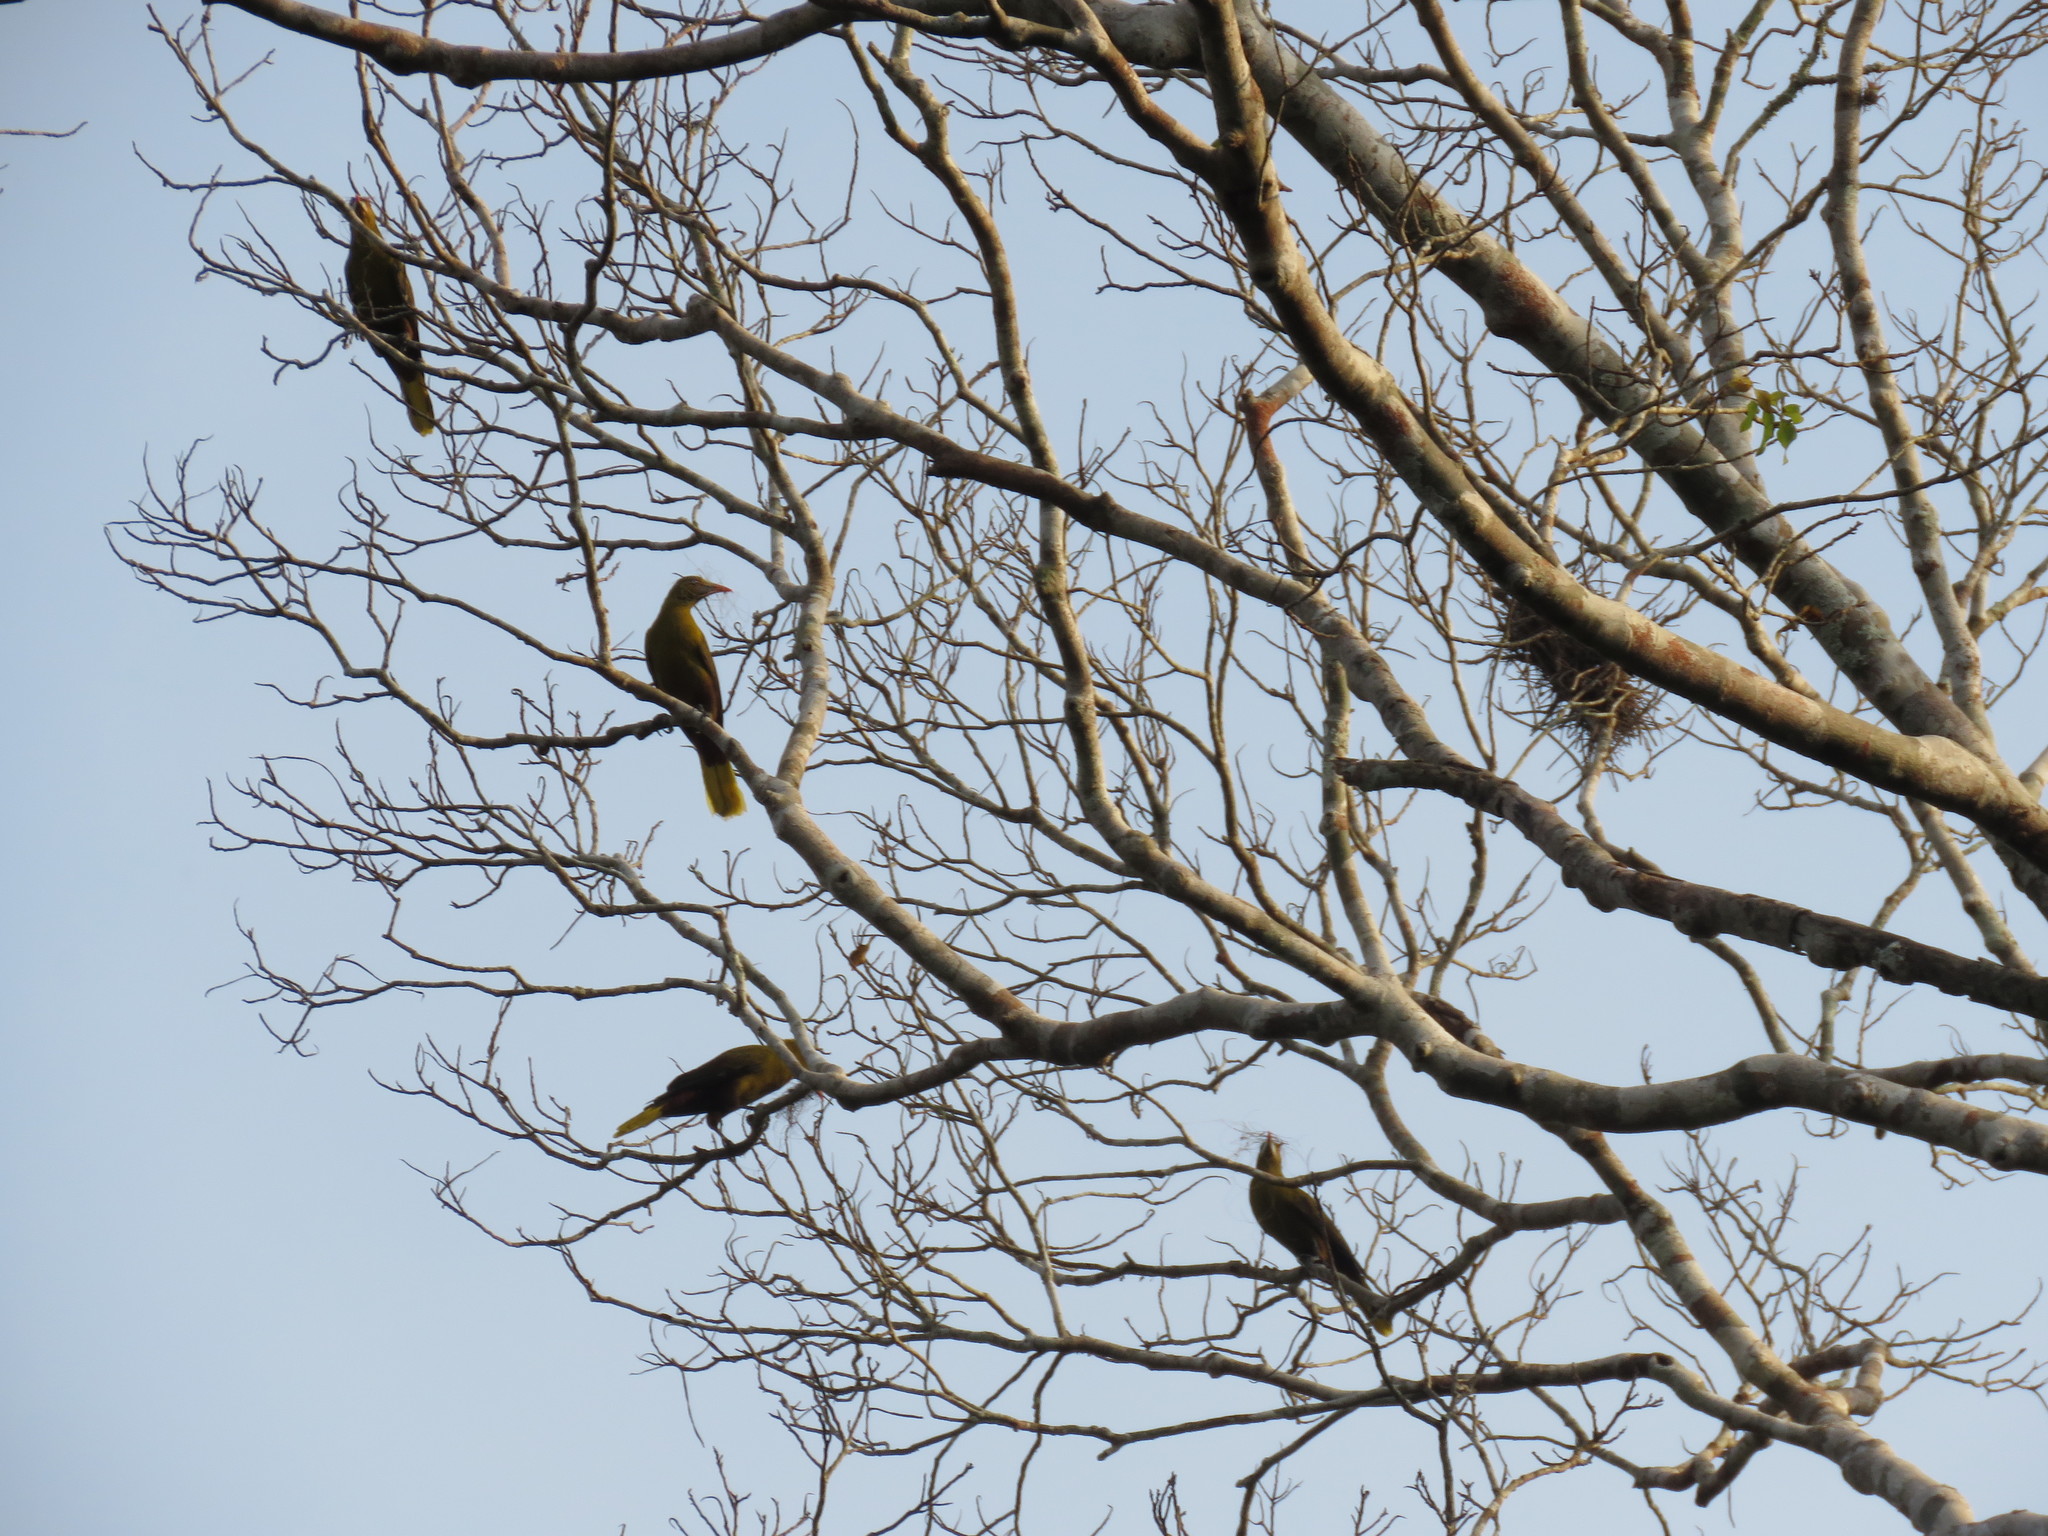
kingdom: Animalia
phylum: Chordata
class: Aves
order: Passeriformes
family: Icteridae
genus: Psarocolius
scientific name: Psarocolius viridis
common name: Green oropendola
